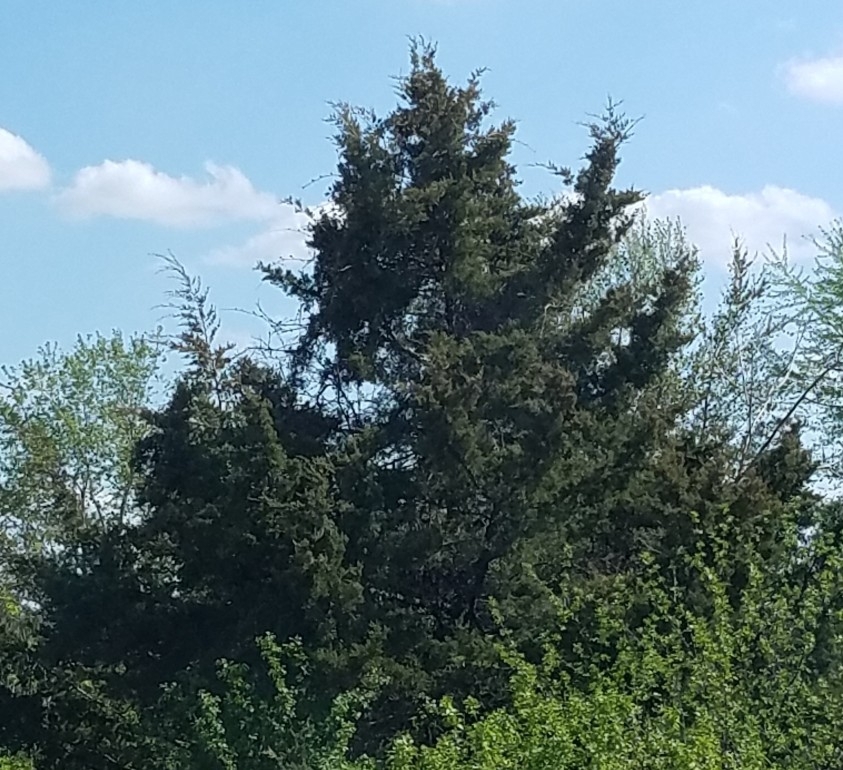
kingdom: Plantae
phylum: Tracheophyta
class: Pinopsida
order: Pinales
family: Cupressaceae
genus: Juniperus
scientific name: Juniperus virginiana
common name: Red juniper
